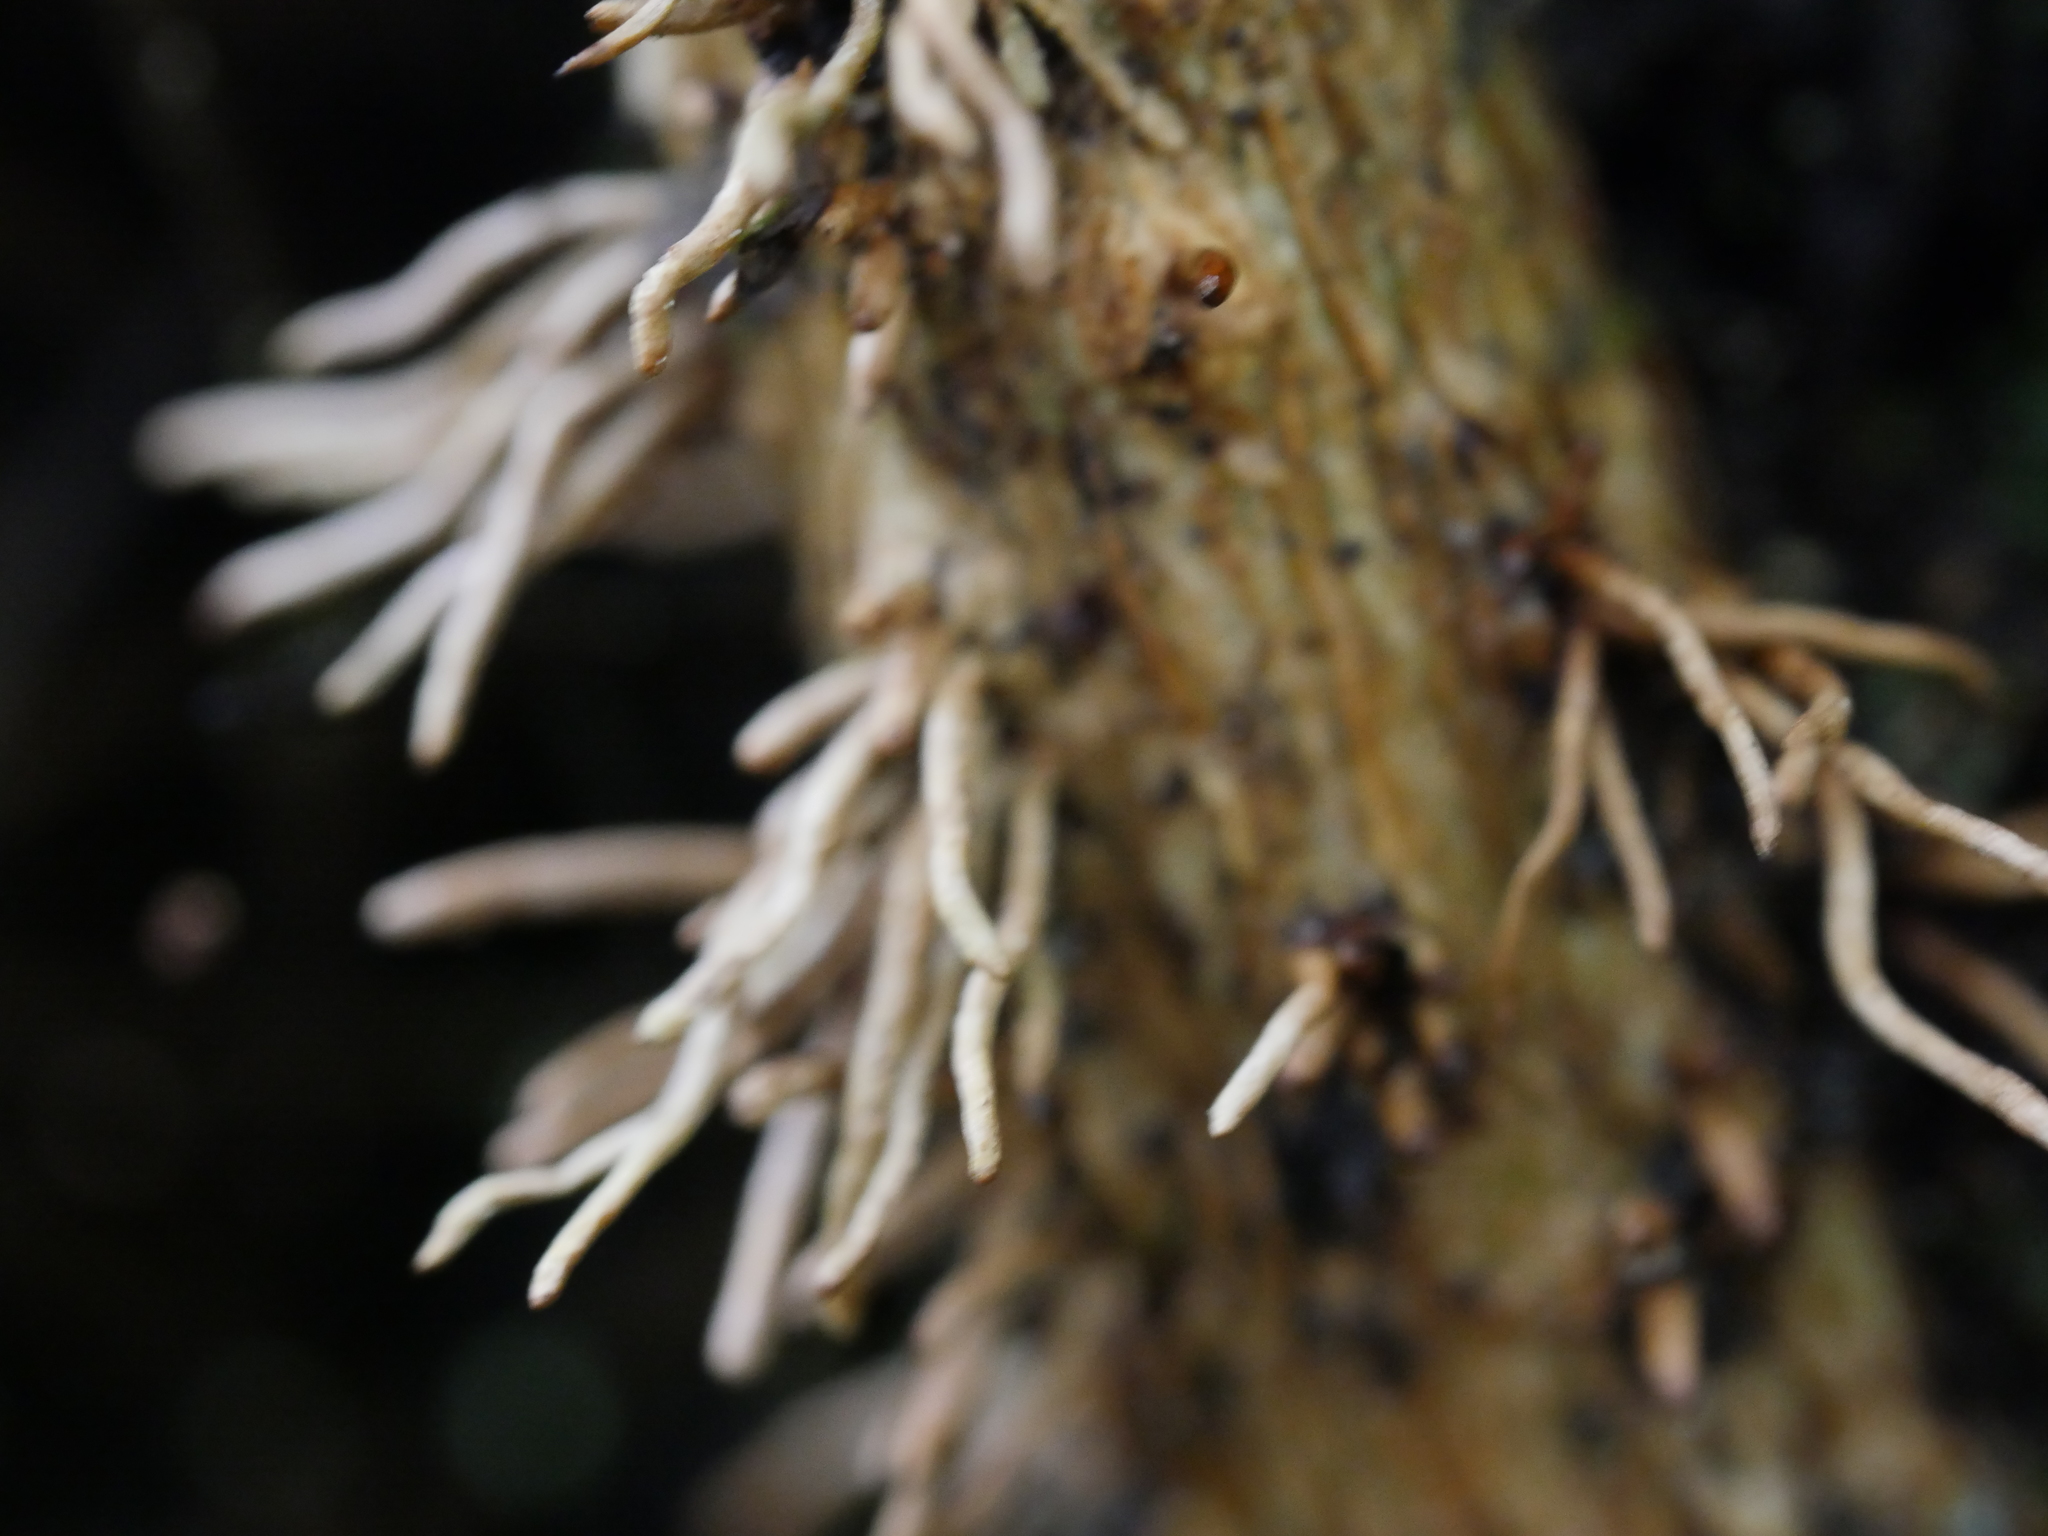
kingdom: Plantae
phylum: Tracheophyta
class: Magnoliopsida
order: Apiales
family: Araliaceae
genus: Hedera
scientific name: Hedera helix
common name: Ivy
